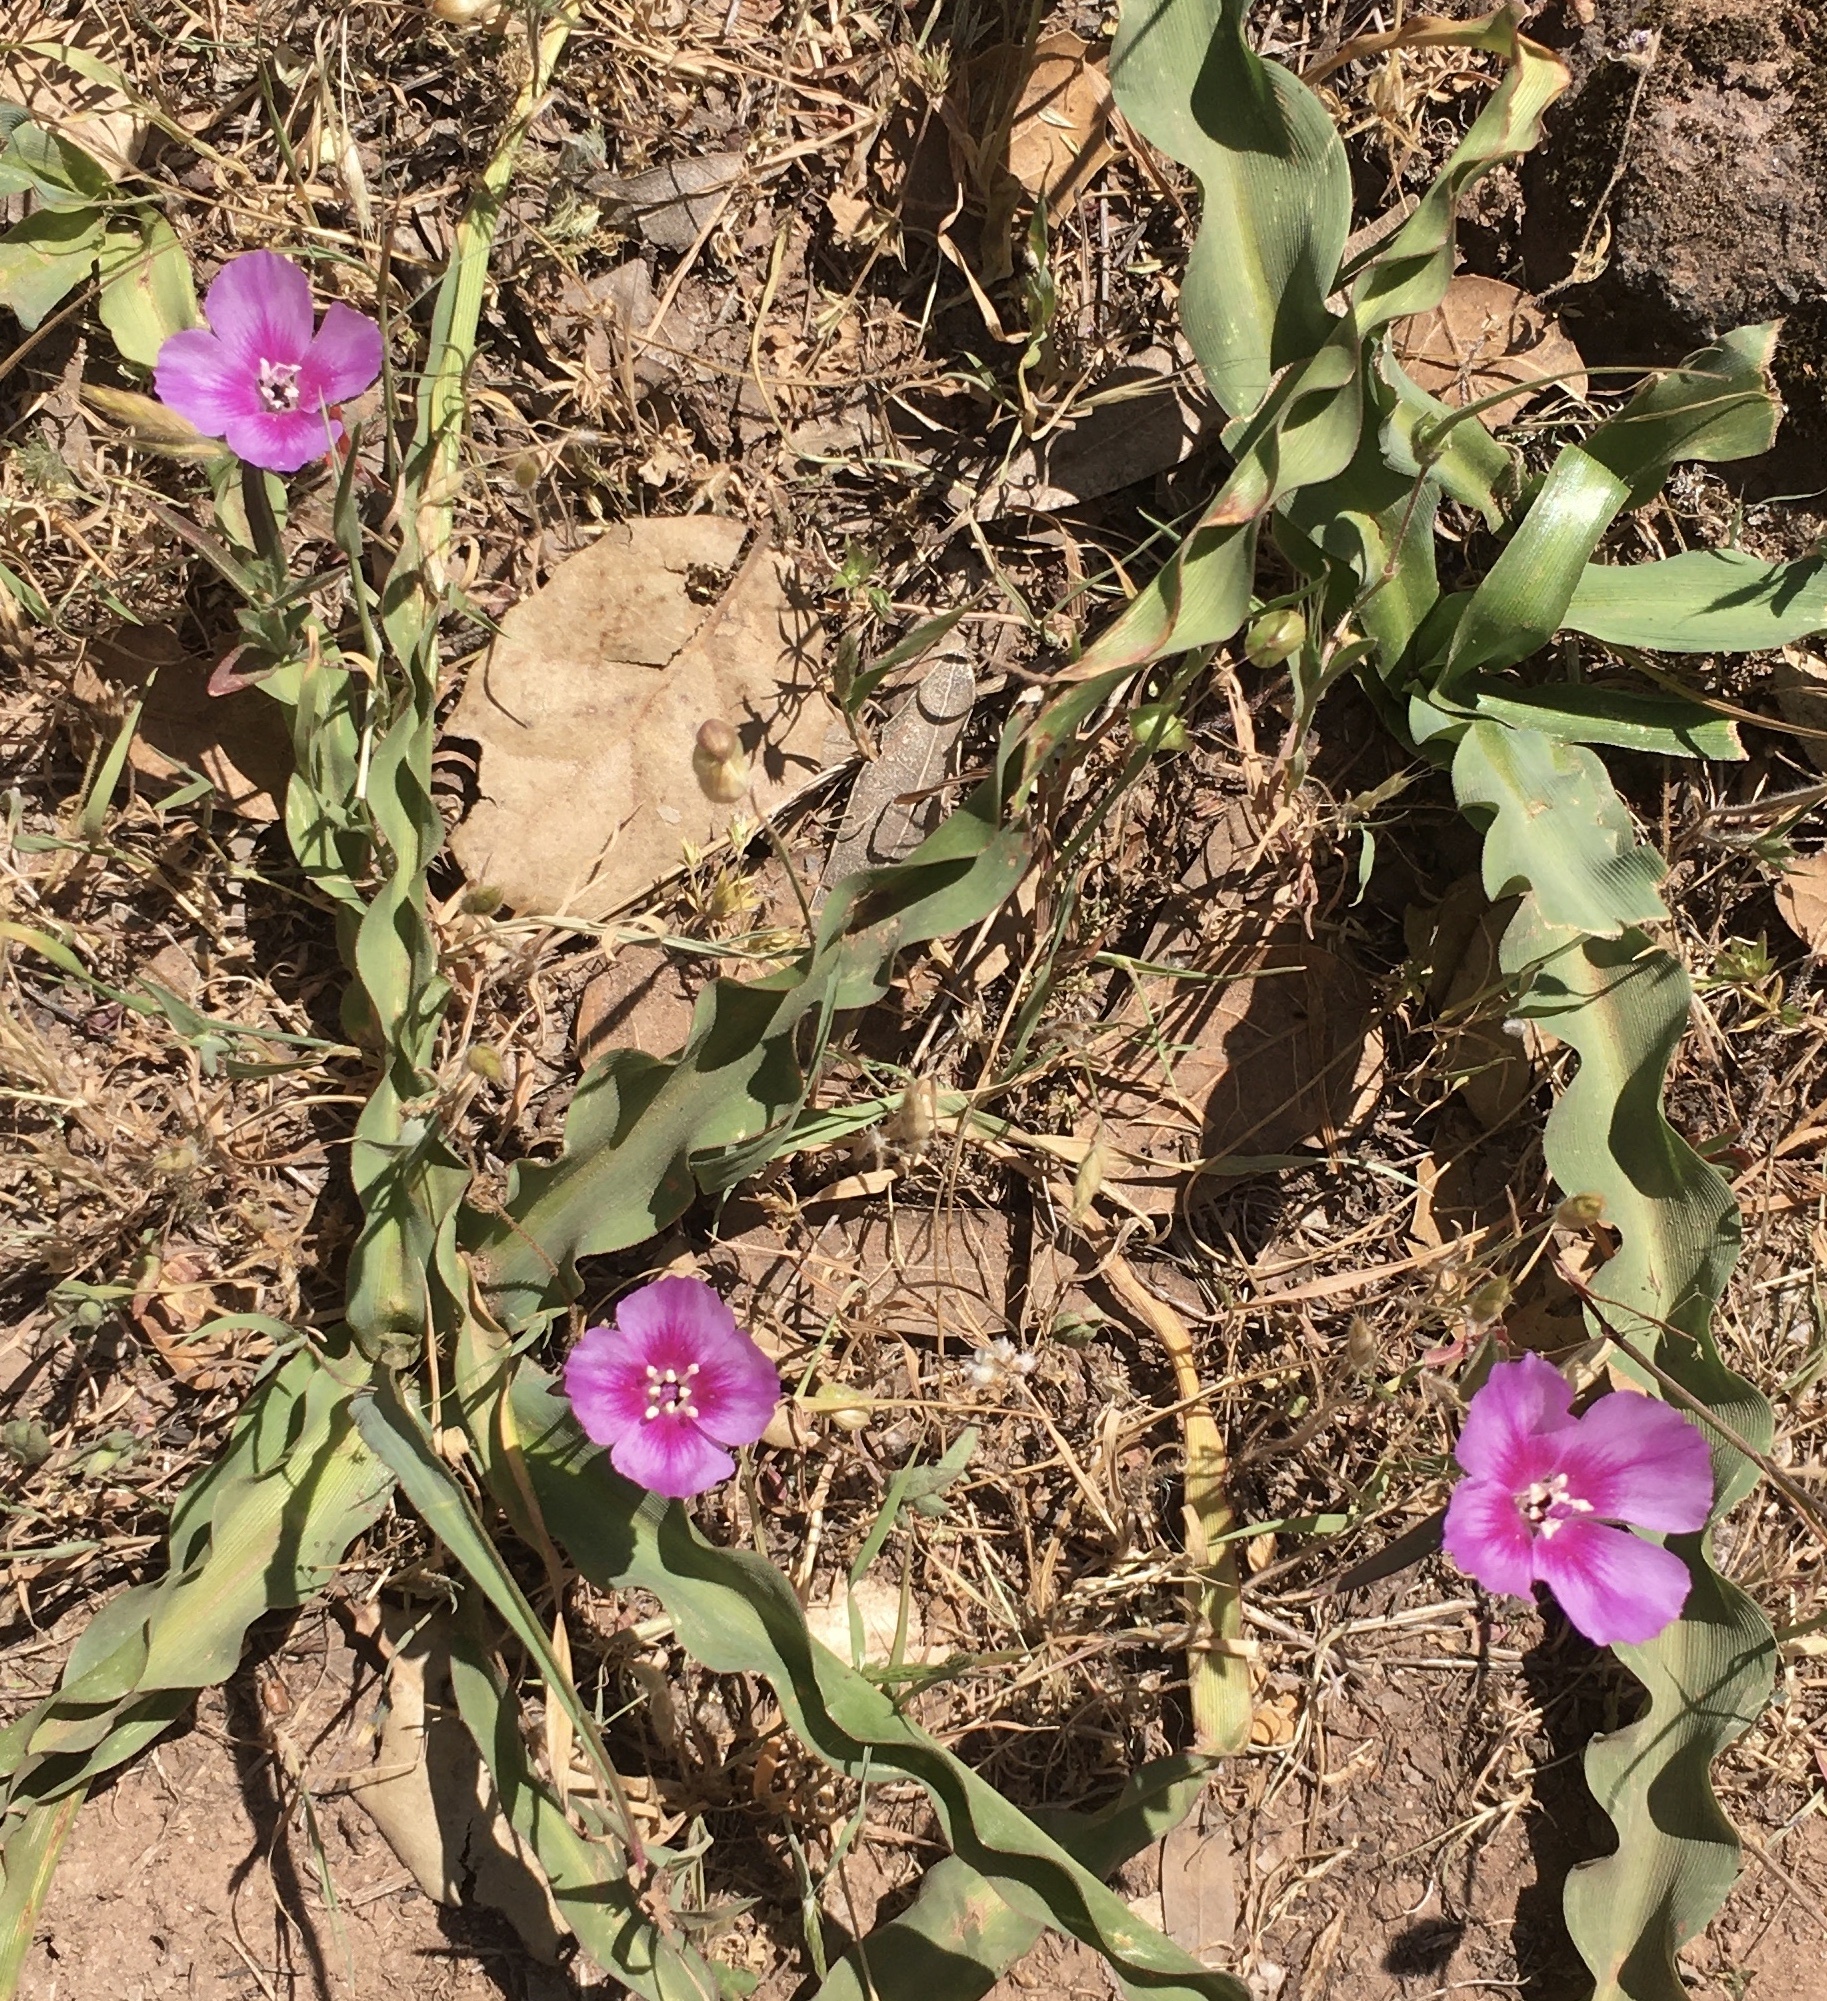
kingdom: Plantae
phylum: Tracheophyta
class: Magnoliopsida
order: Myrtales
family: Onagraceae
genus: Clarkia
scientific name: Clarkia purpurea
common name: Purple clarkia
